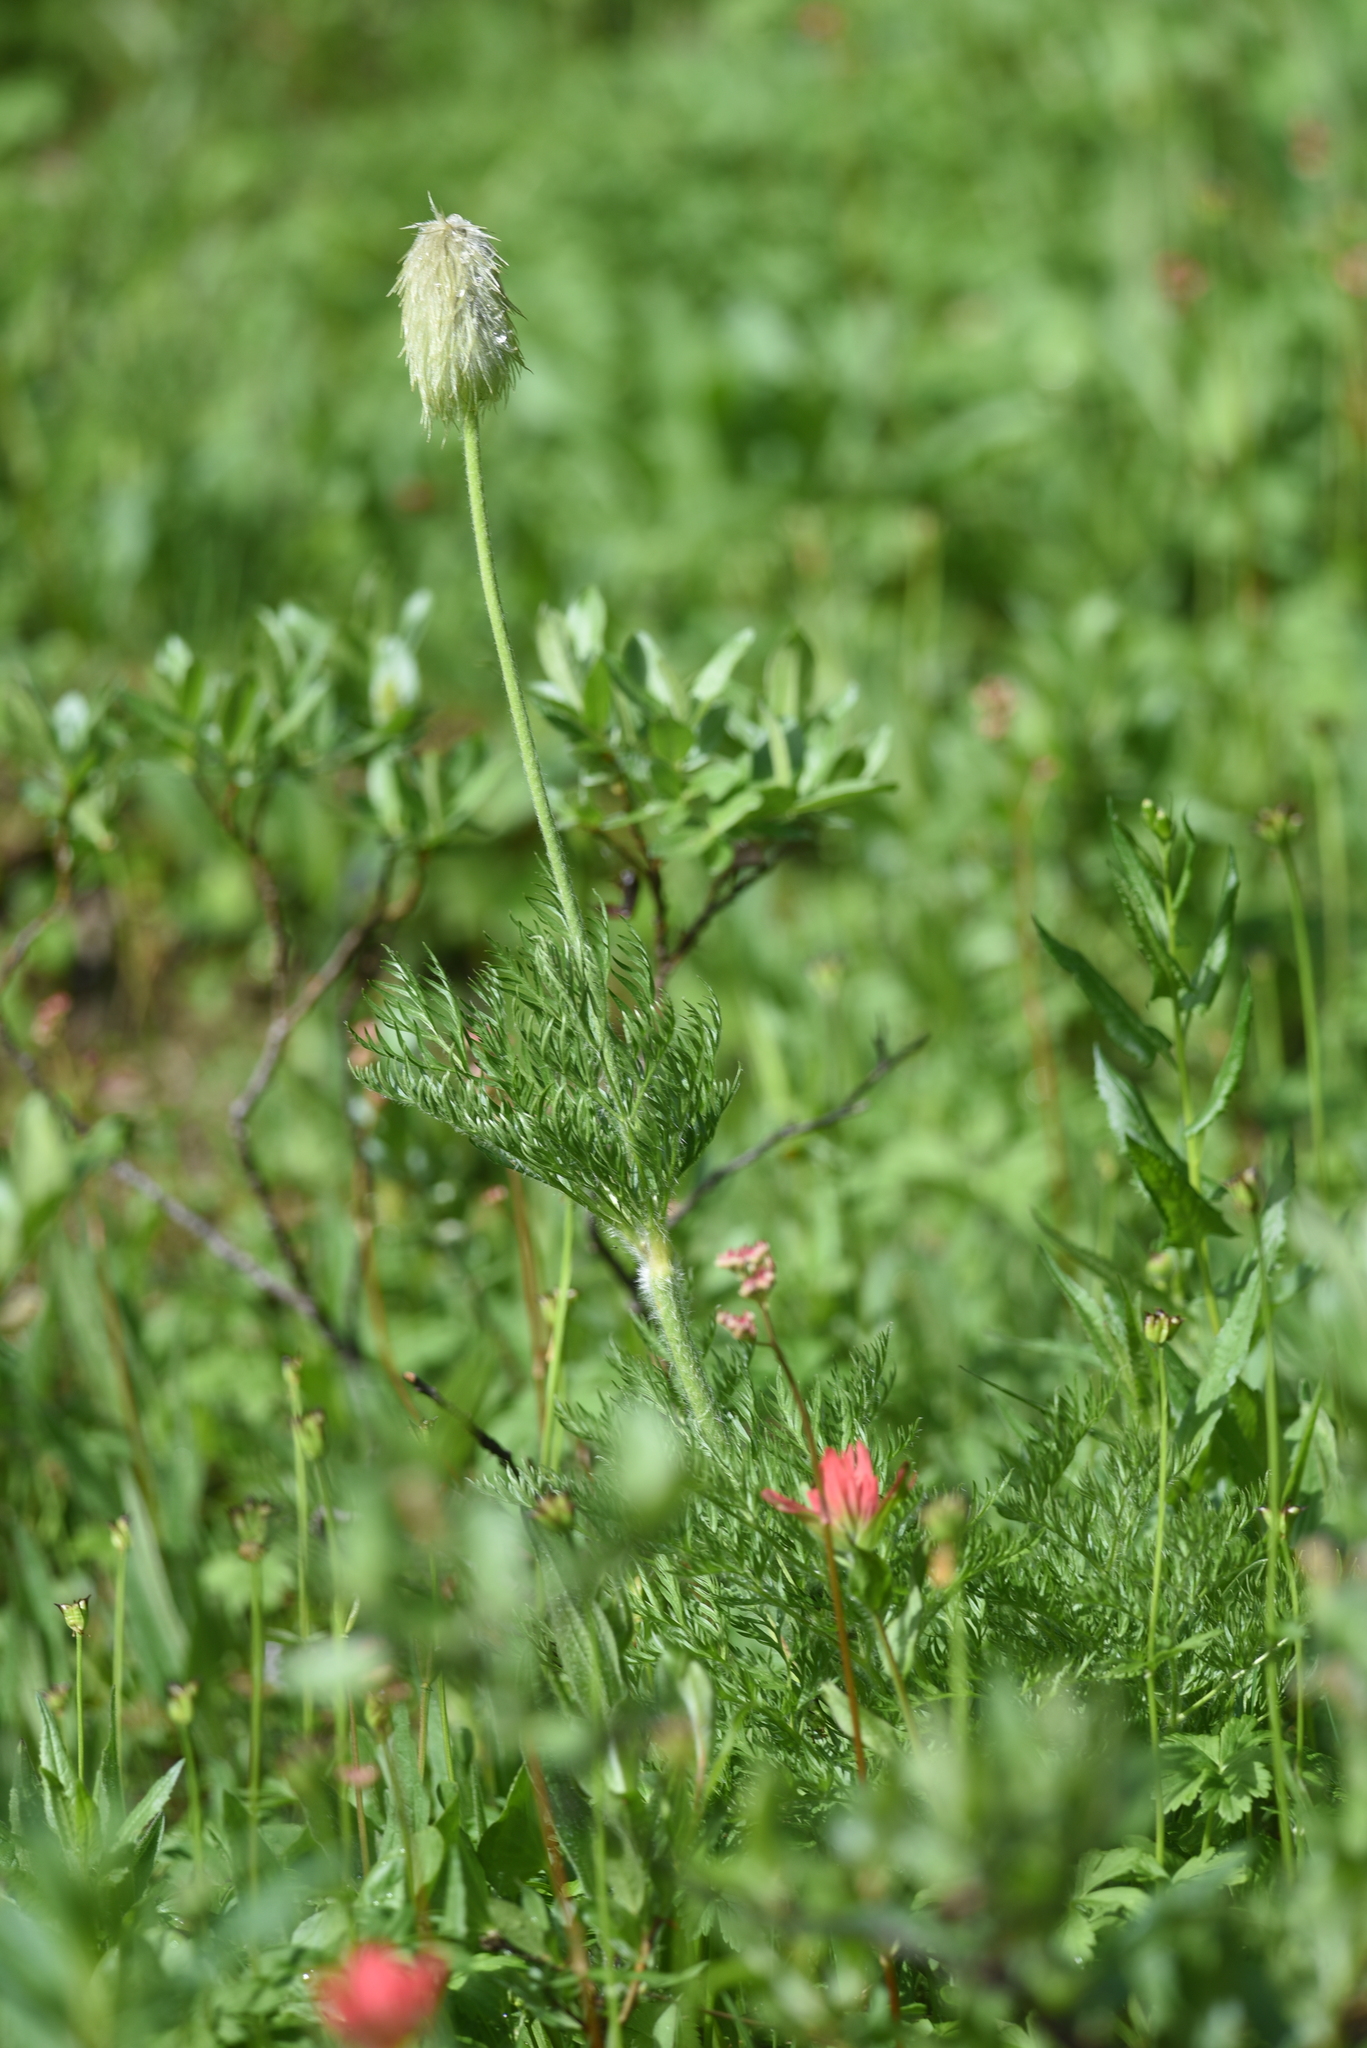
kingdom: Plantae
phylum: Tracheophyta
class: Magnoliopsida
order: Ranunculales
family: Ranunculaceae
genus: Pulsatilla
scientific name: Pulsatilla occidentalis
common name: Mountain pasqueflower
